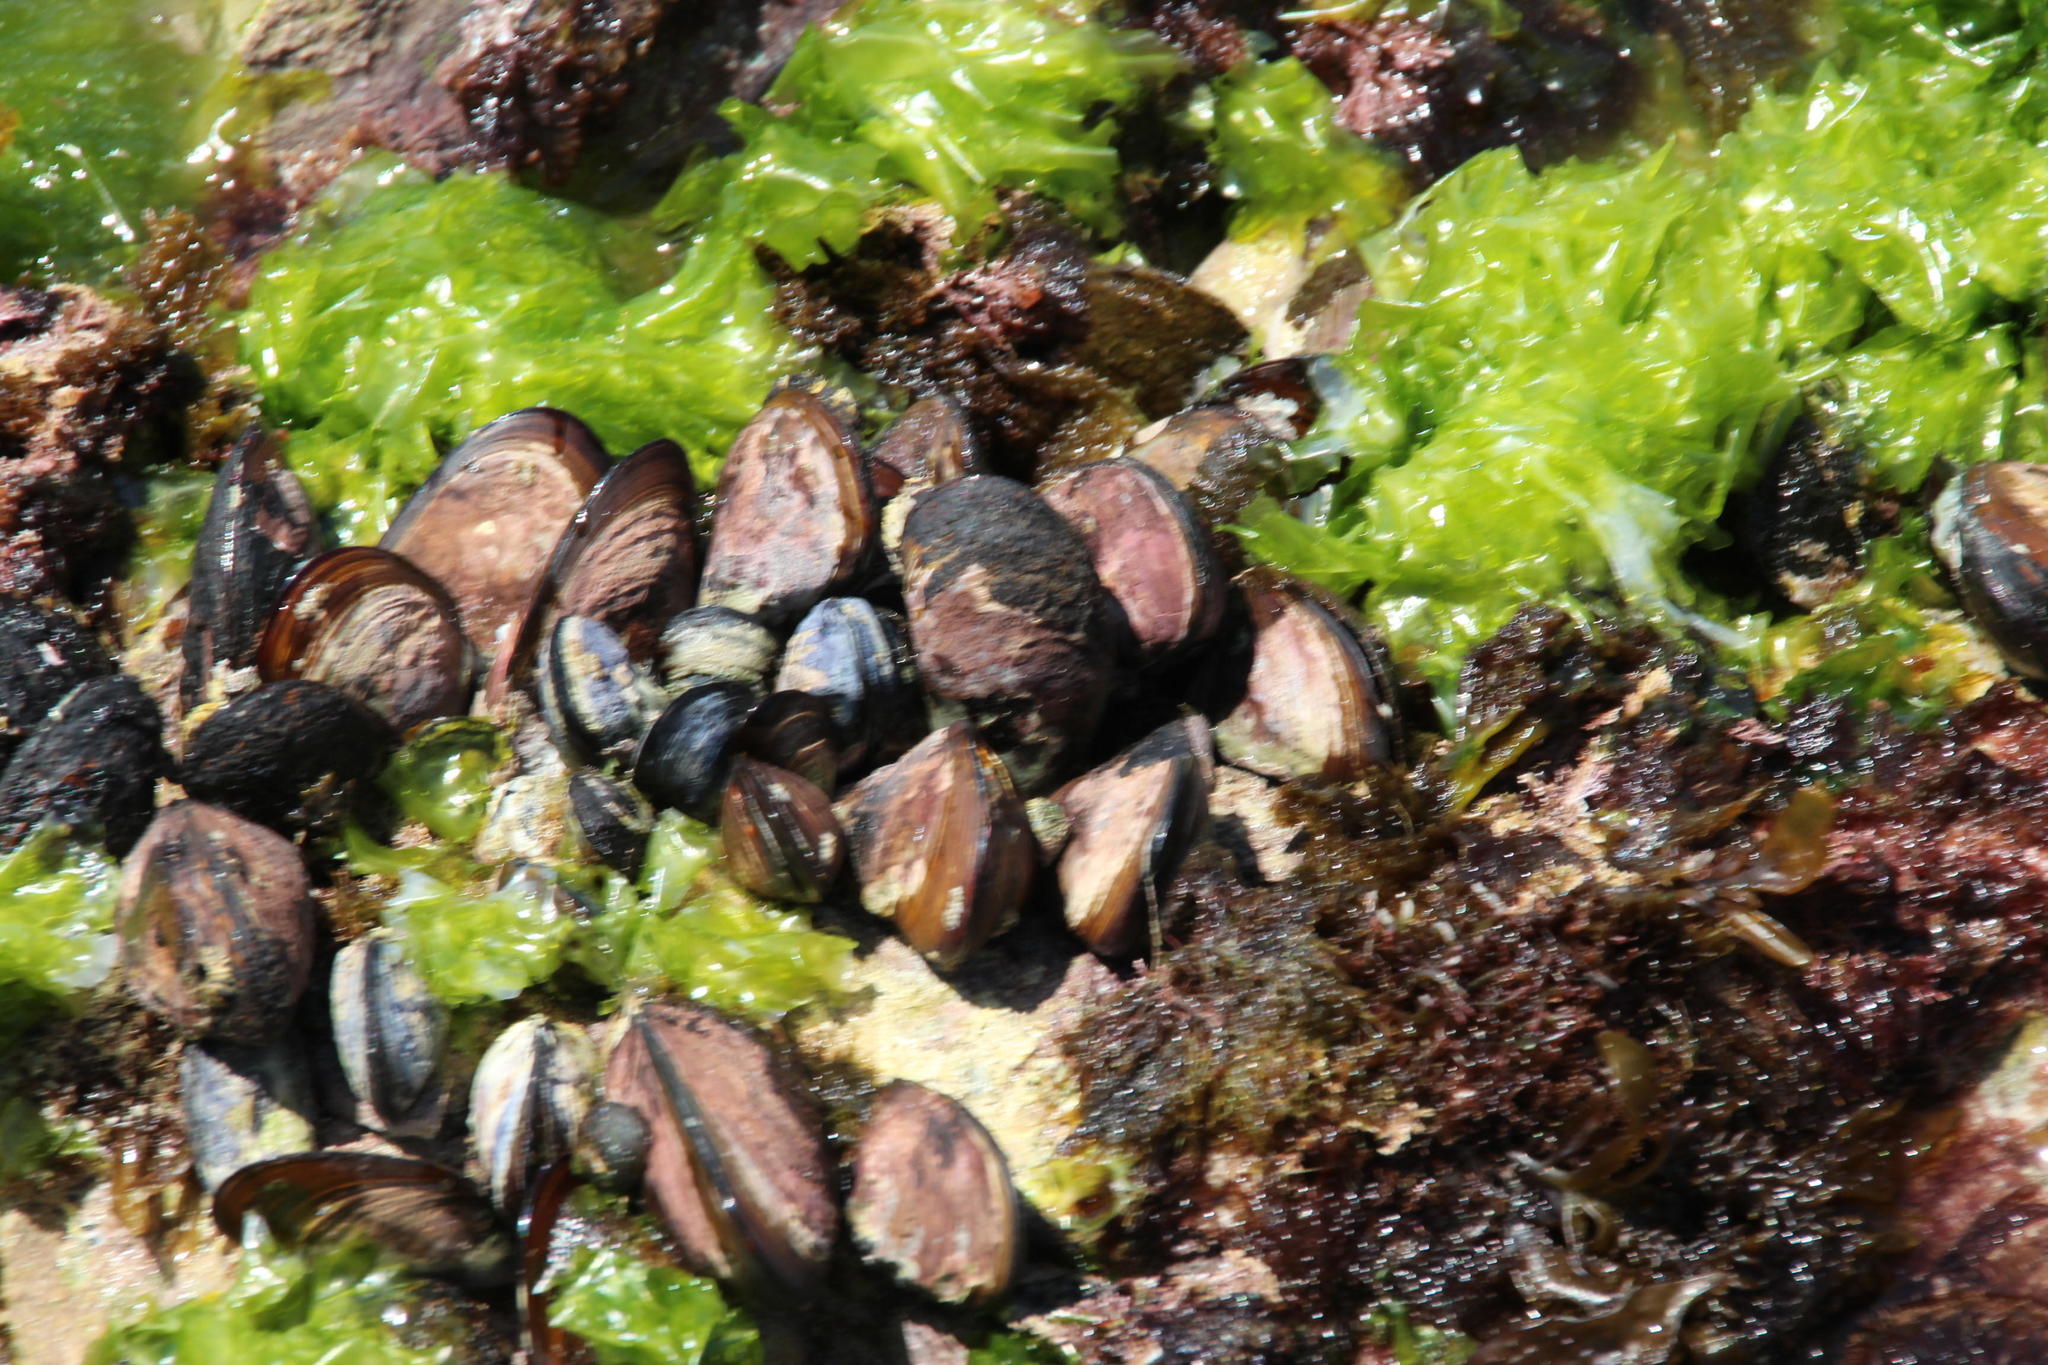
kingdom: Animalia
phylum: Mollusca
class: Bivalvia
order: Mytilida
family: Mytilidae
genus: Perna
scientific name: Perna perna
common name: Mexilhao mussel
